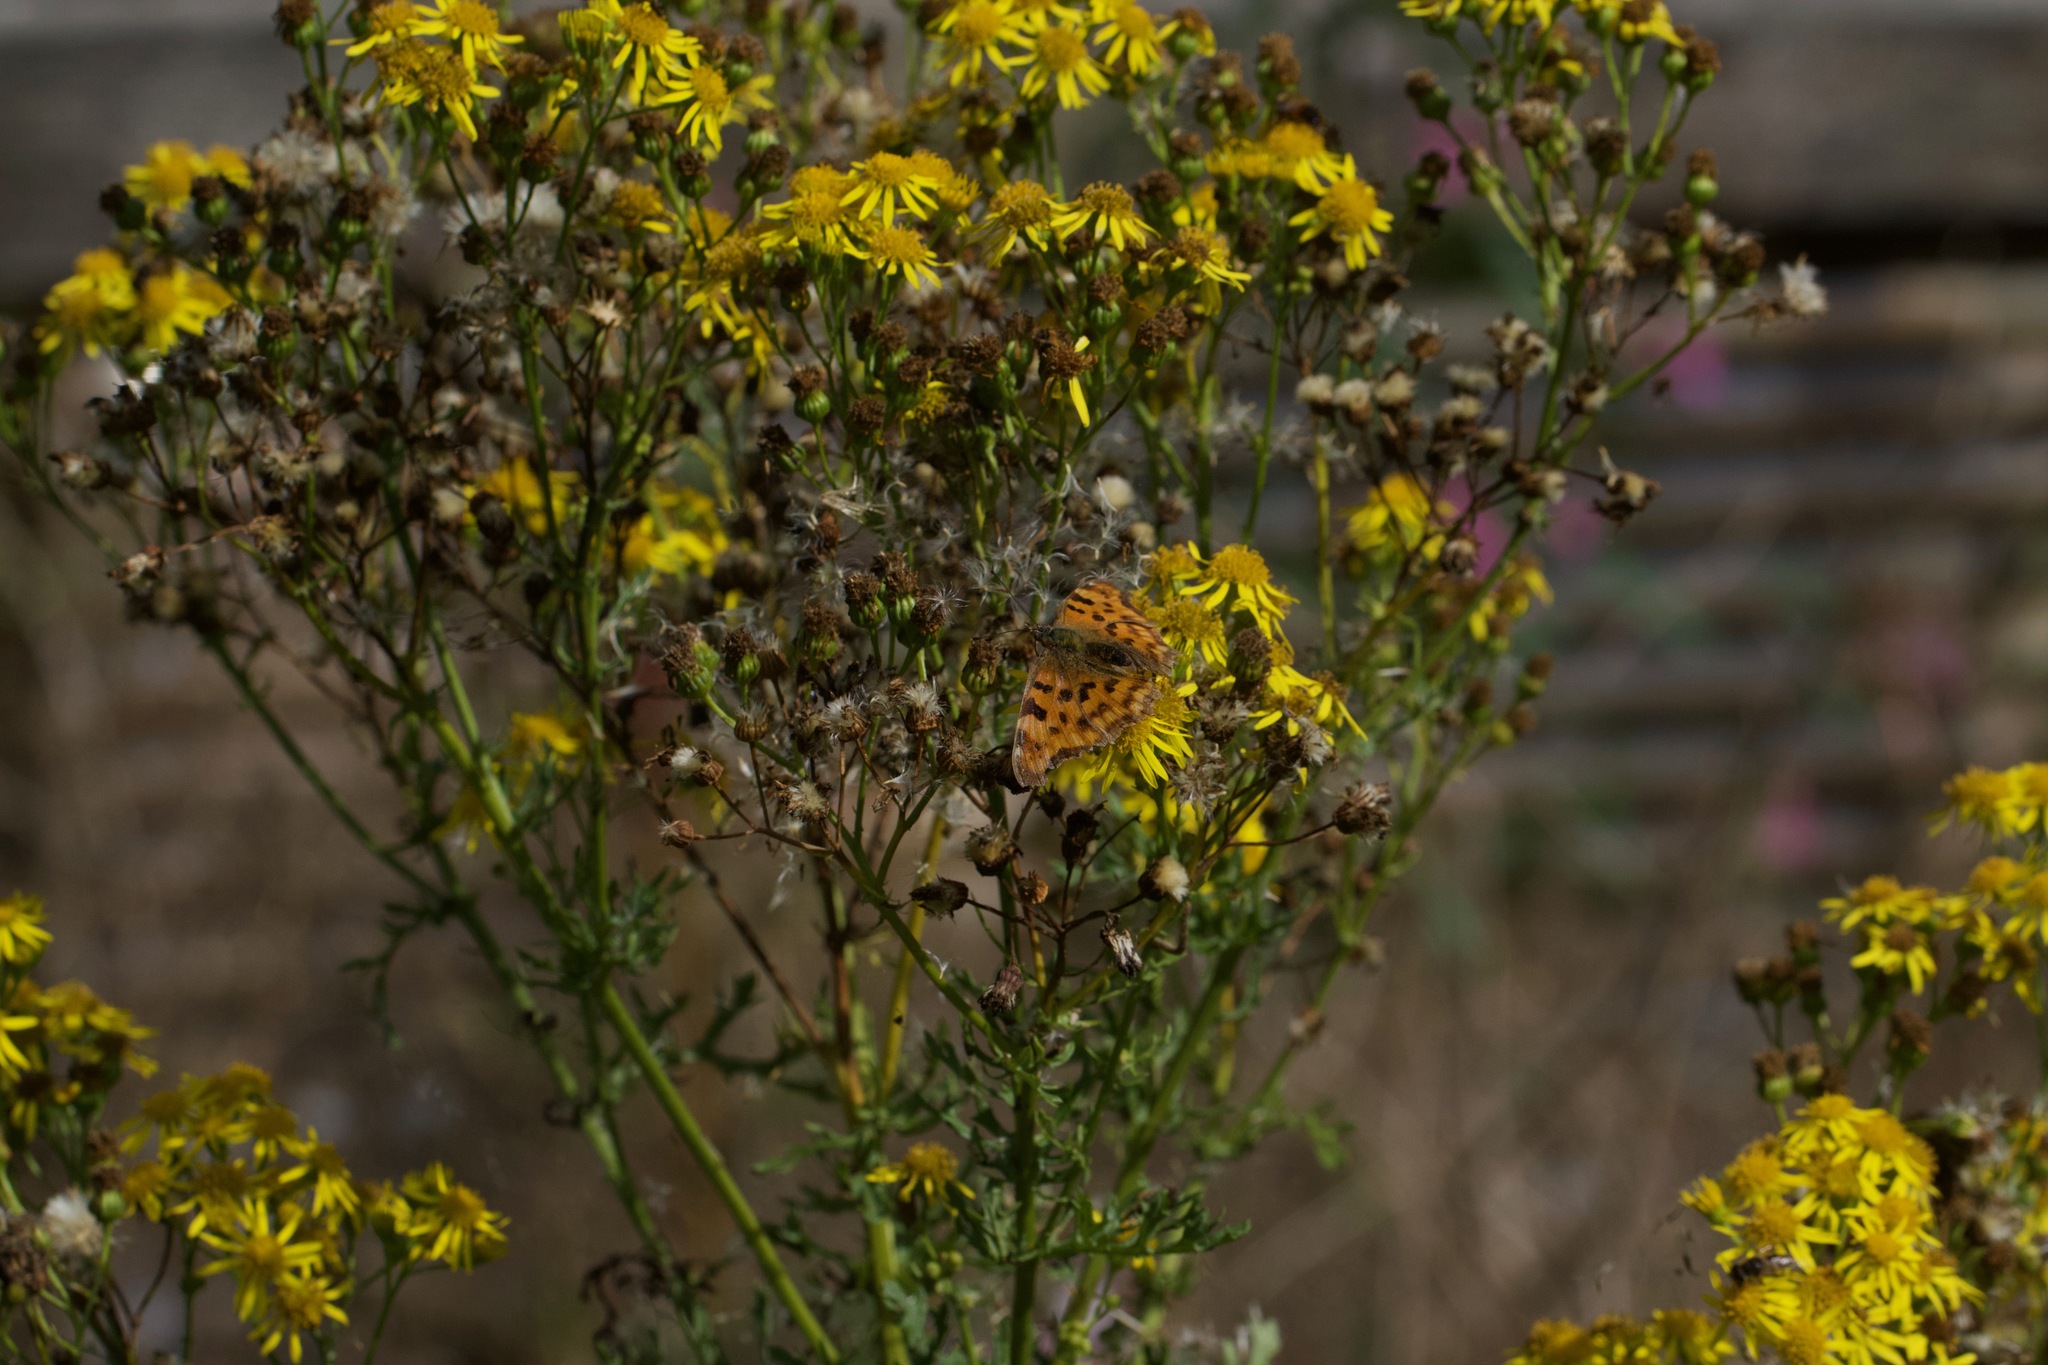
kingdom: Animalia
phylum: Arthropoda
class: Insecta
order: Lepidoptera
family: Nymphalidae
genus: Polygonia
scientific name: Polygonia c-album
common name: Comma
